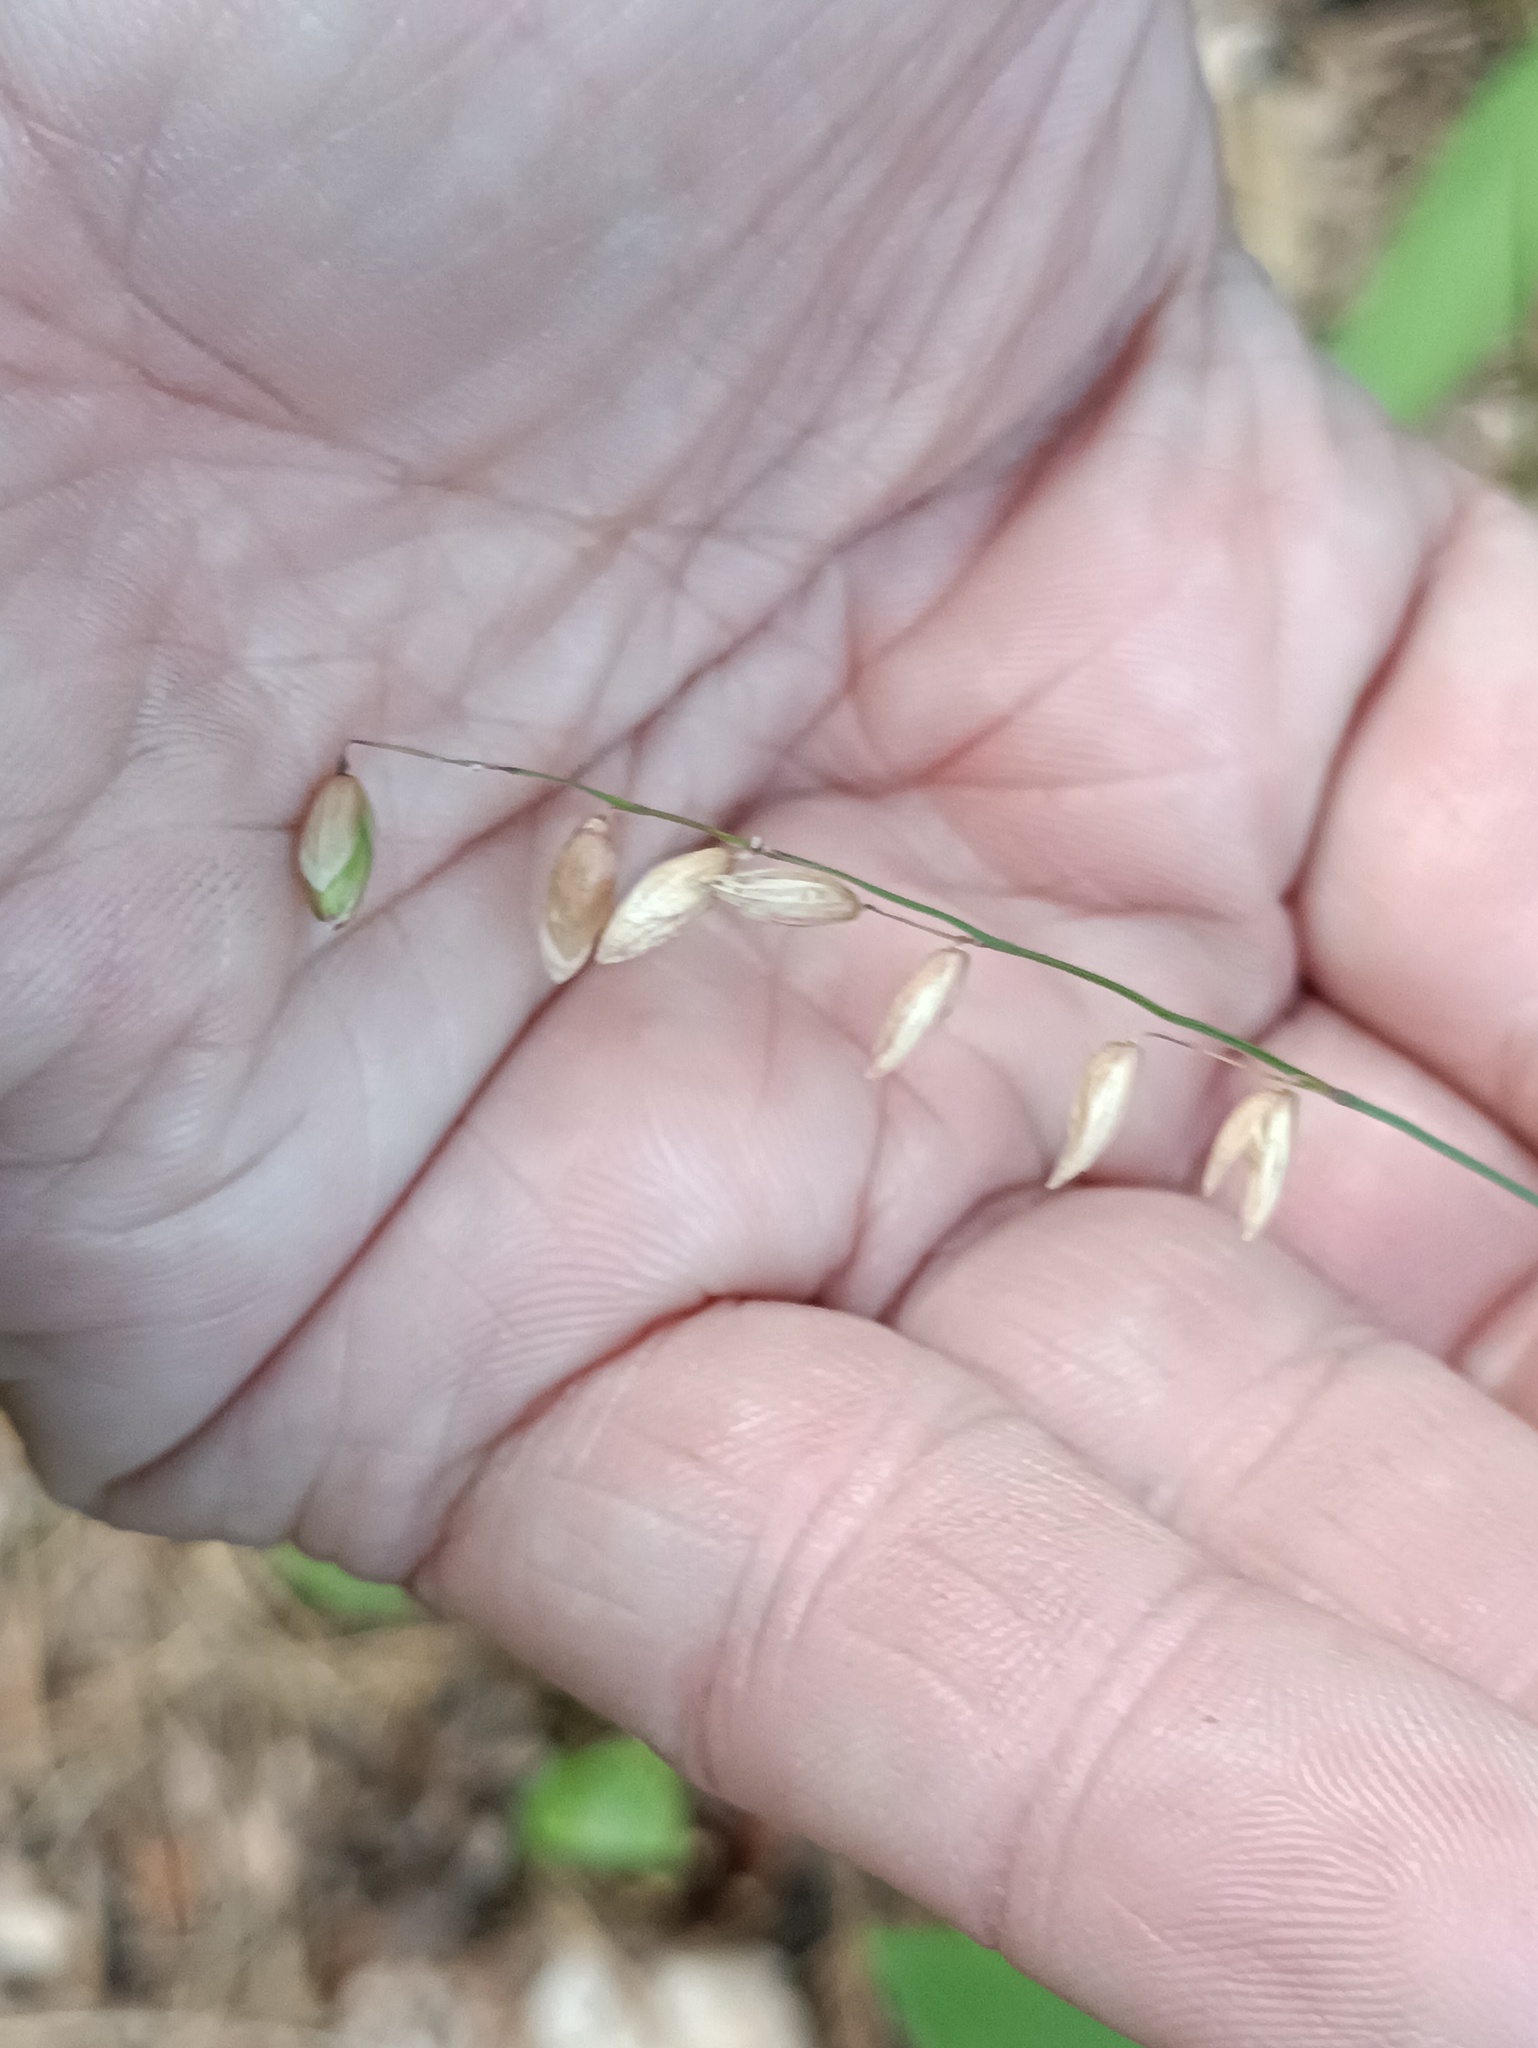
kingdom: Plantae
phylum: Tracheophyta
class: Liliopsida
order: Poales
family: Poaceae
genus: Melica
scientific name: Melica nutans
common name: Mountain melick
